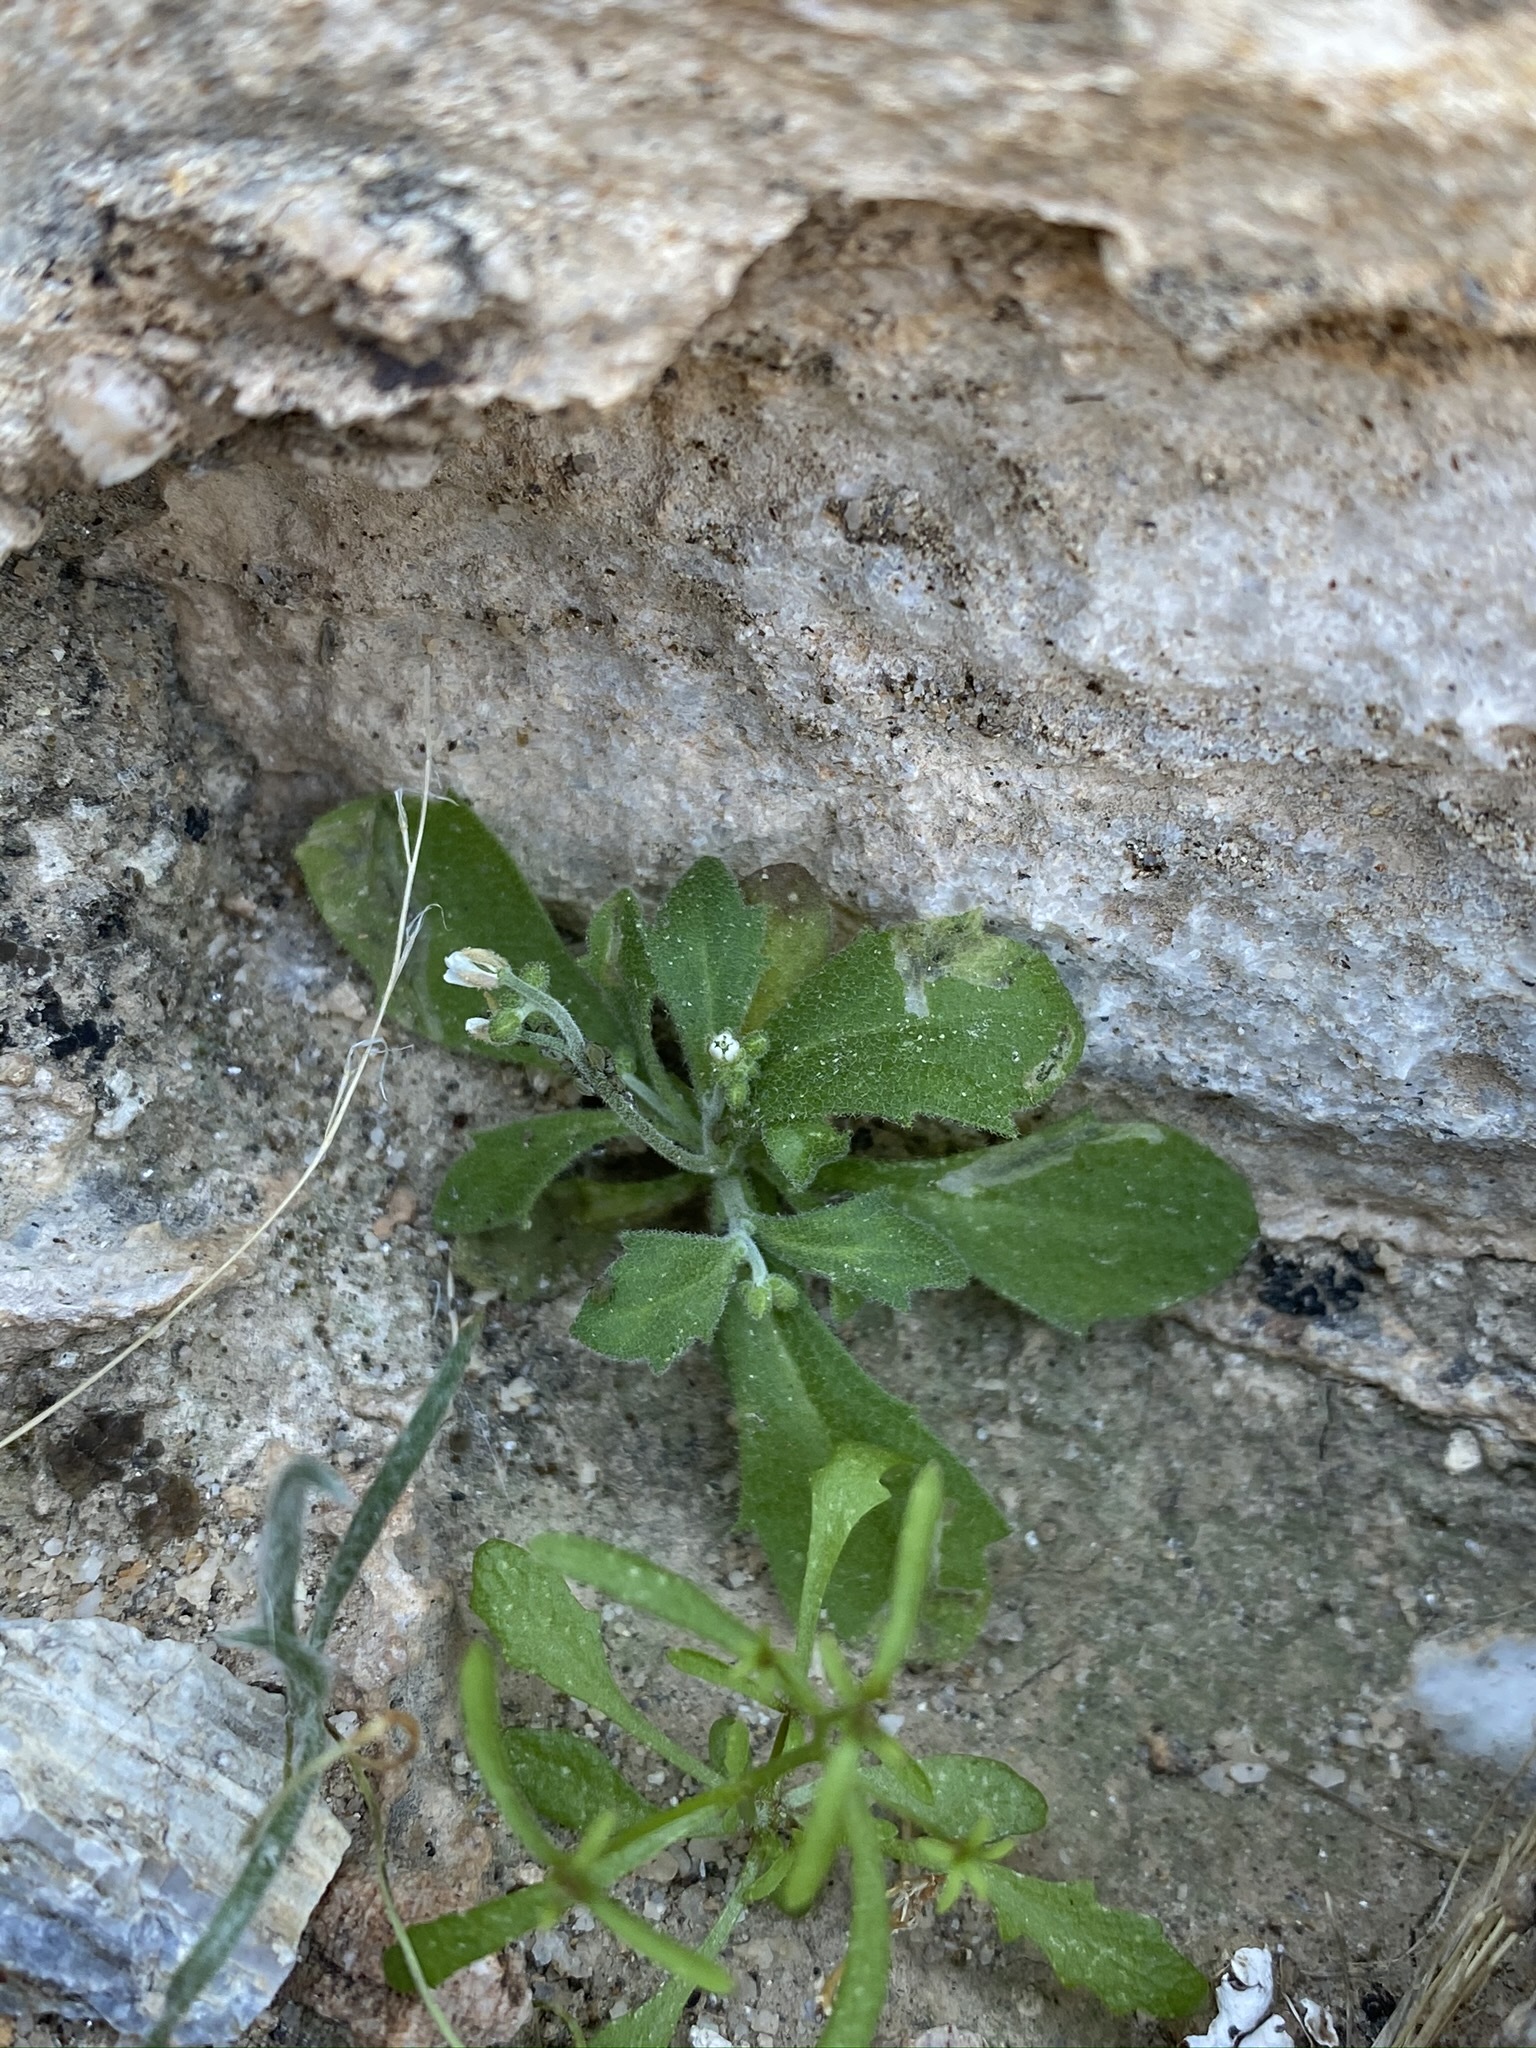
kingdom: Plantae
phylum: Tracheophyta
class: Magnoliopsida
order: Brassicales
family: Brassicaceae
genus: Tomostima
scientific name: Tomostima cuneifolia
